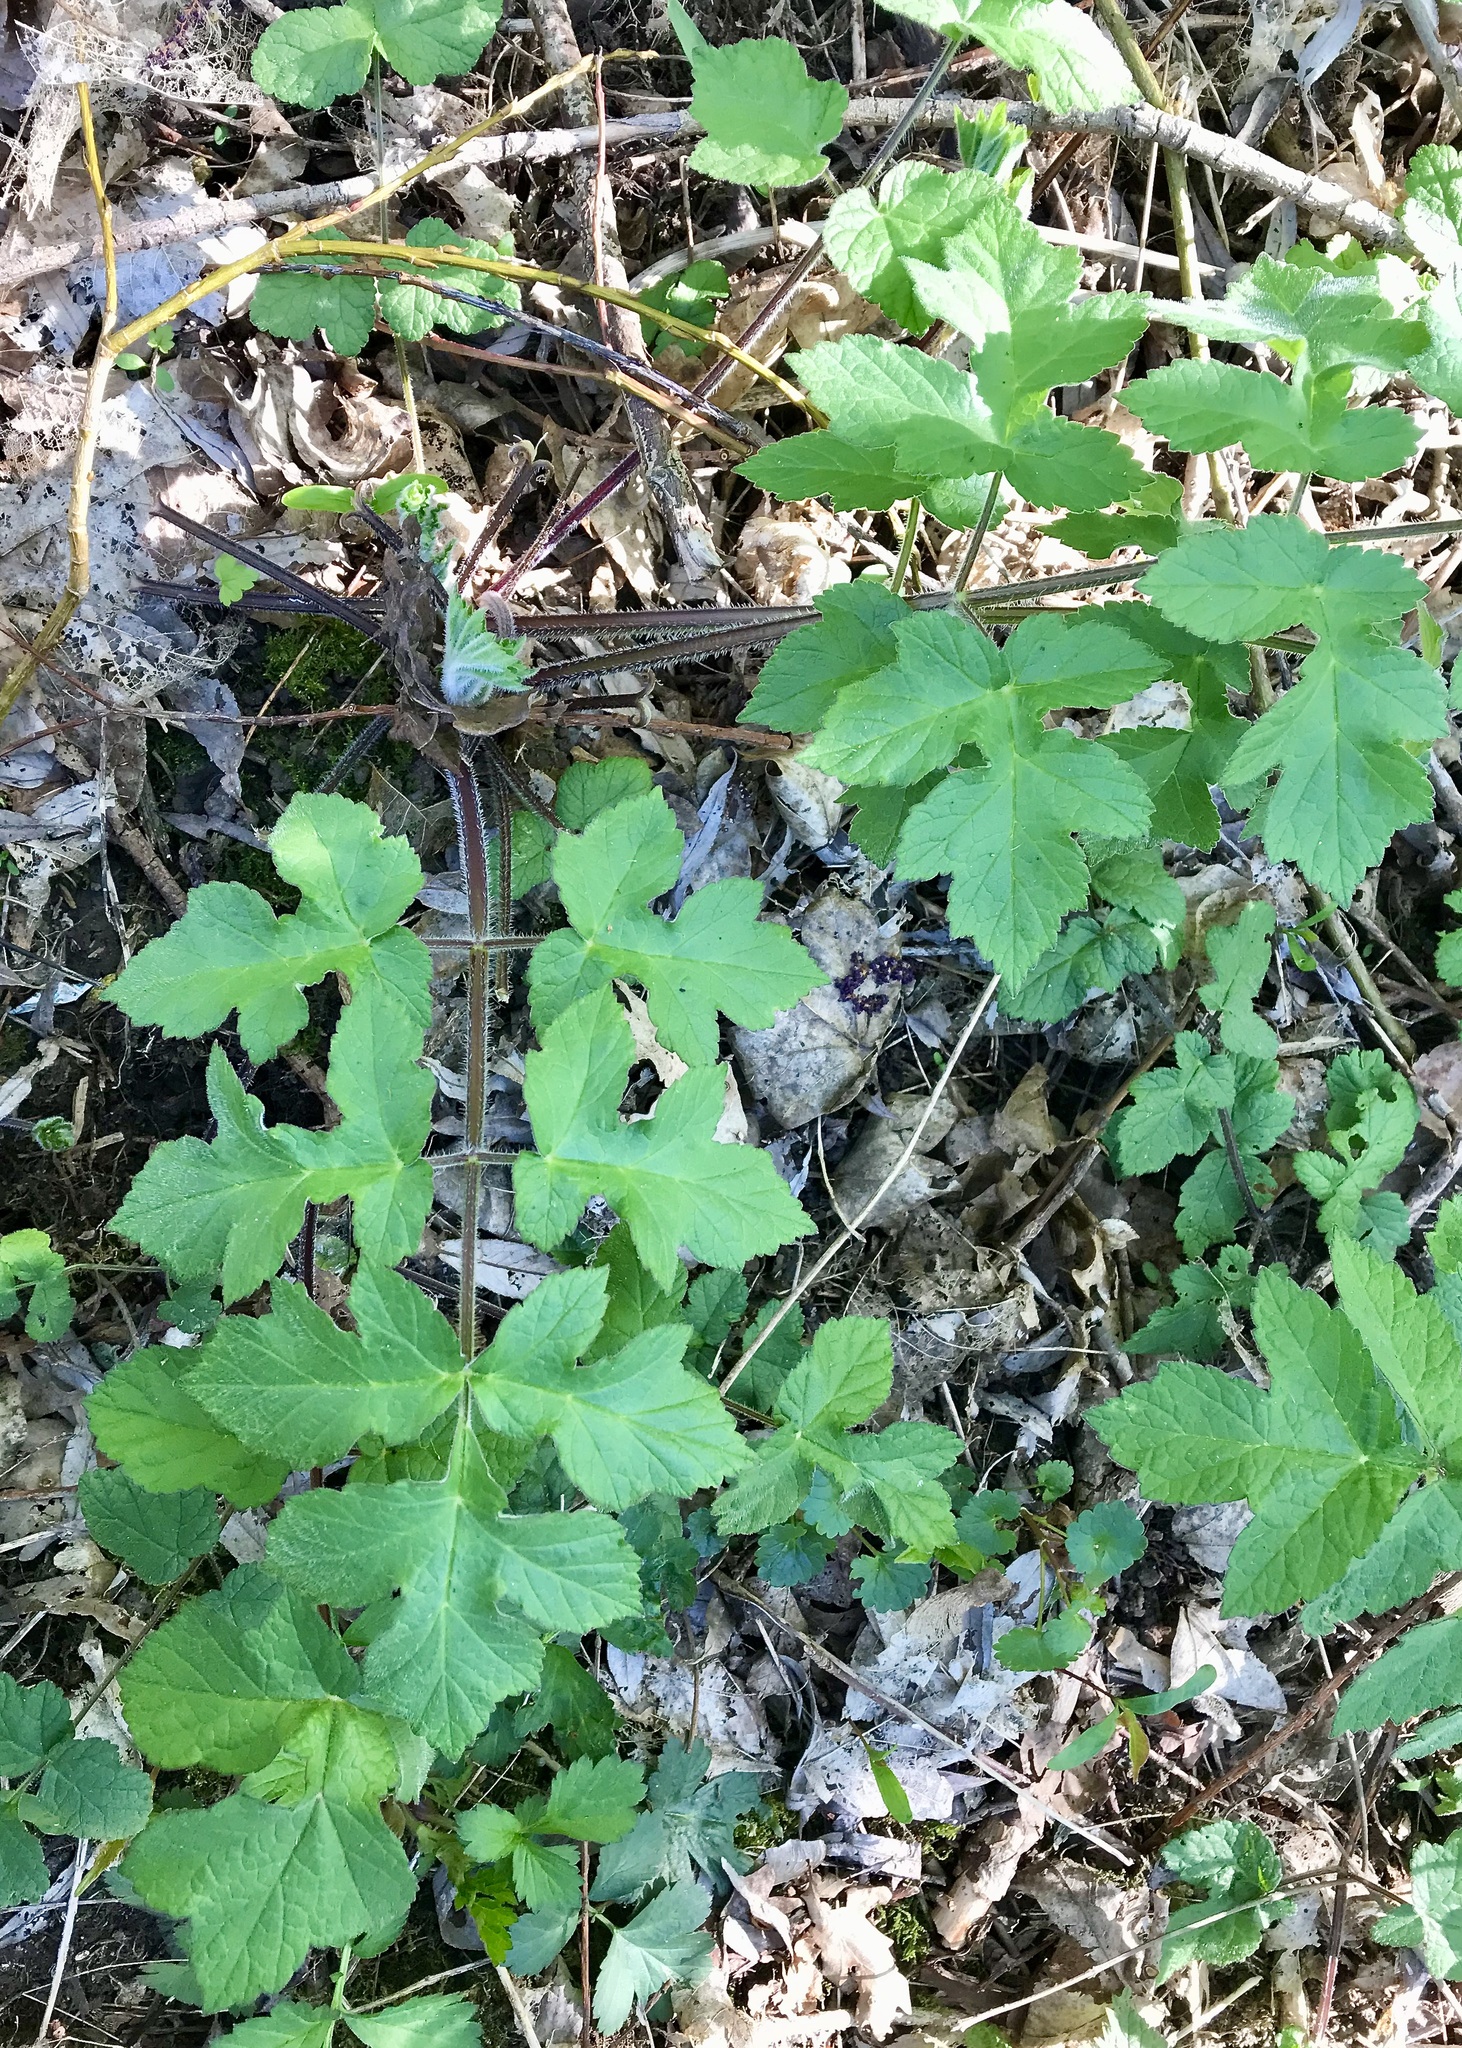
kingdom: Plantae
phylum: Tracheophyta
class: Magnoliopsida
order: Apiales
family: Apiaceae
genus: Heracleum
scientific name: Heracleum sphondylium
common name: Hogweed
